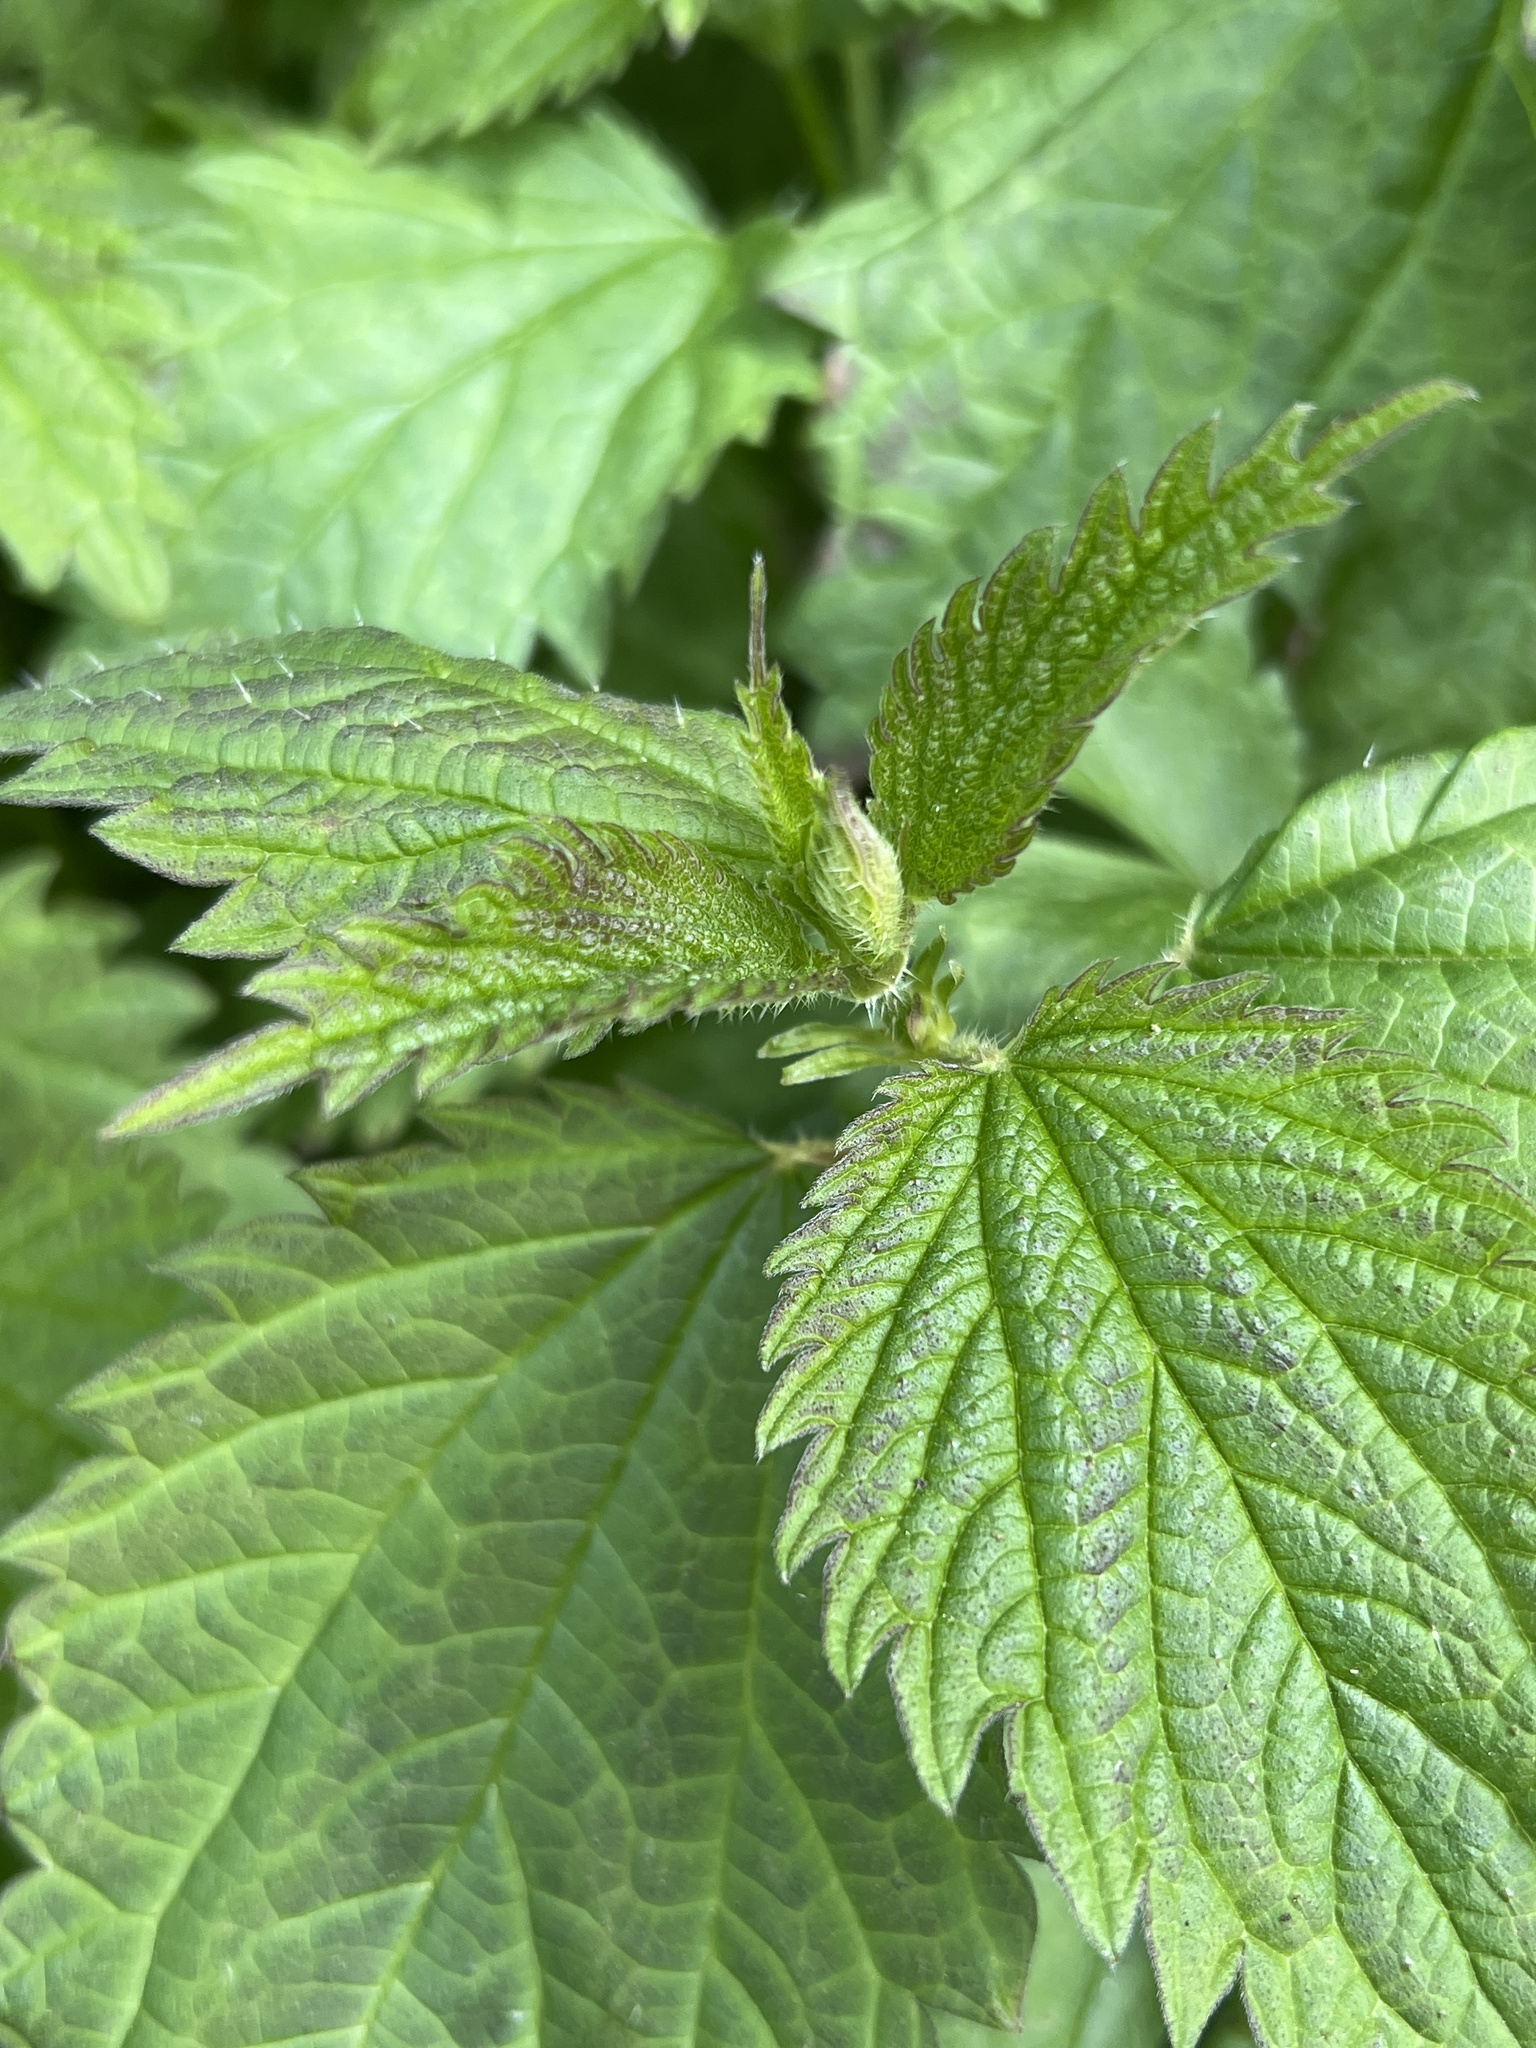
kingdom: Plantae
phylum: Tracheophyta
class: Magnoliopsida
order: Rosales
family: Urticaceae
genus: Urtica
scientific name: Urtica dioica
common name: Common nettle
